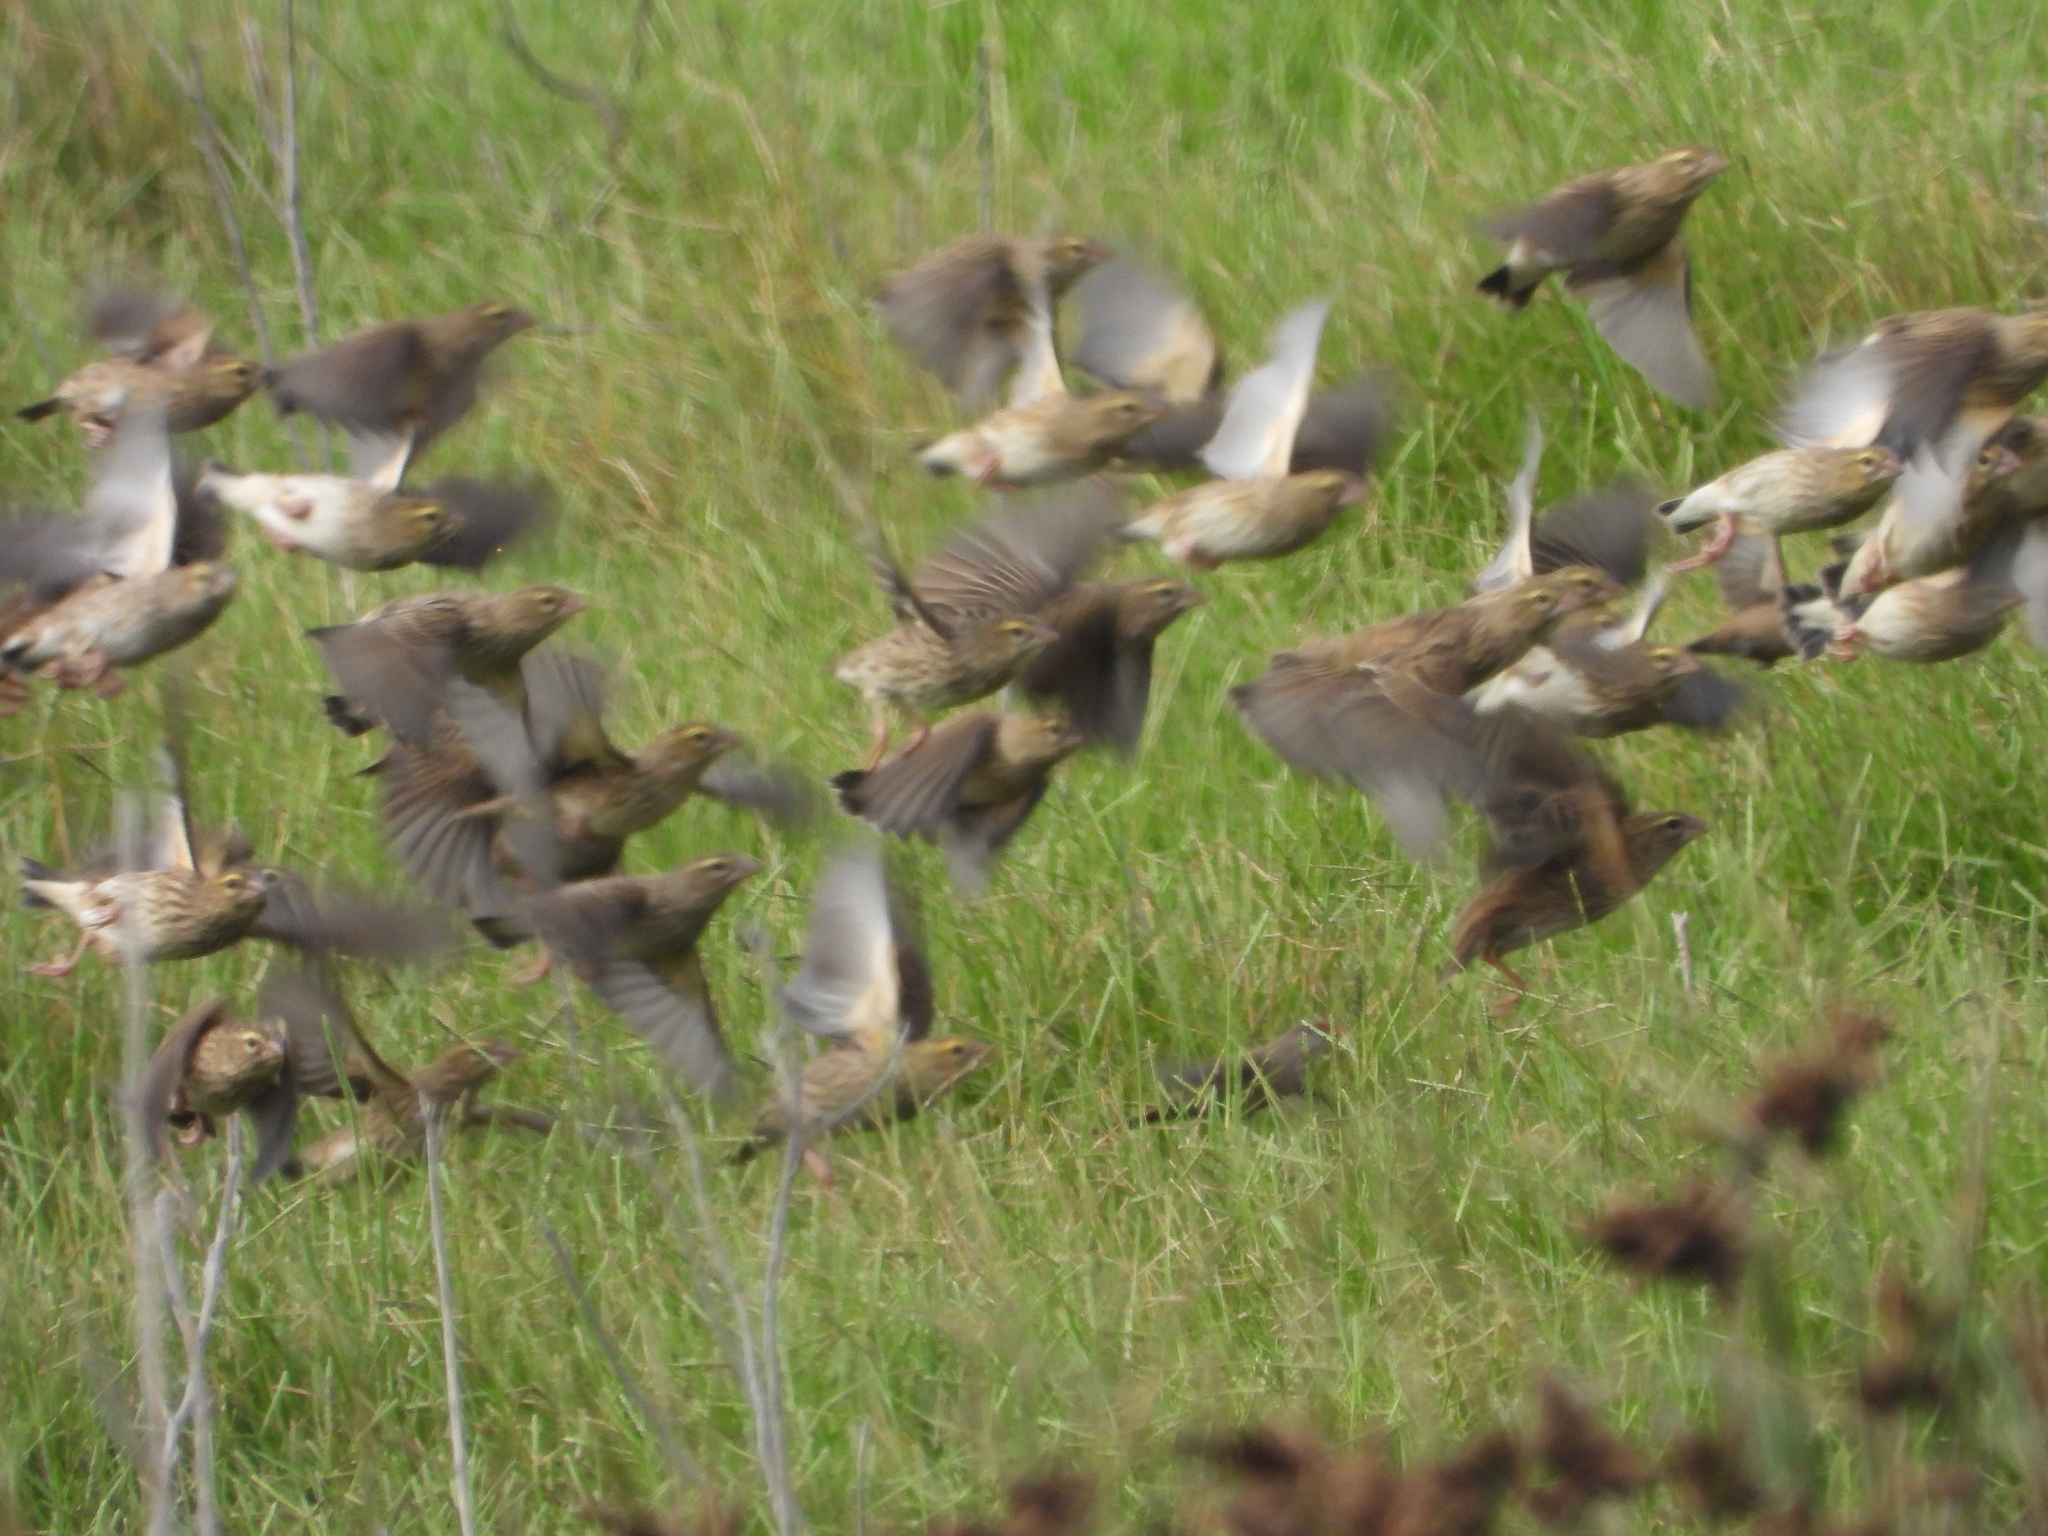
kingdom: Animalia
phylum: Chordata
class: Aves
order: Passeriformes
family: Ploceidae
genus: Euplectes
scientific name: Euplectes orix
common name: Southern red bishop
